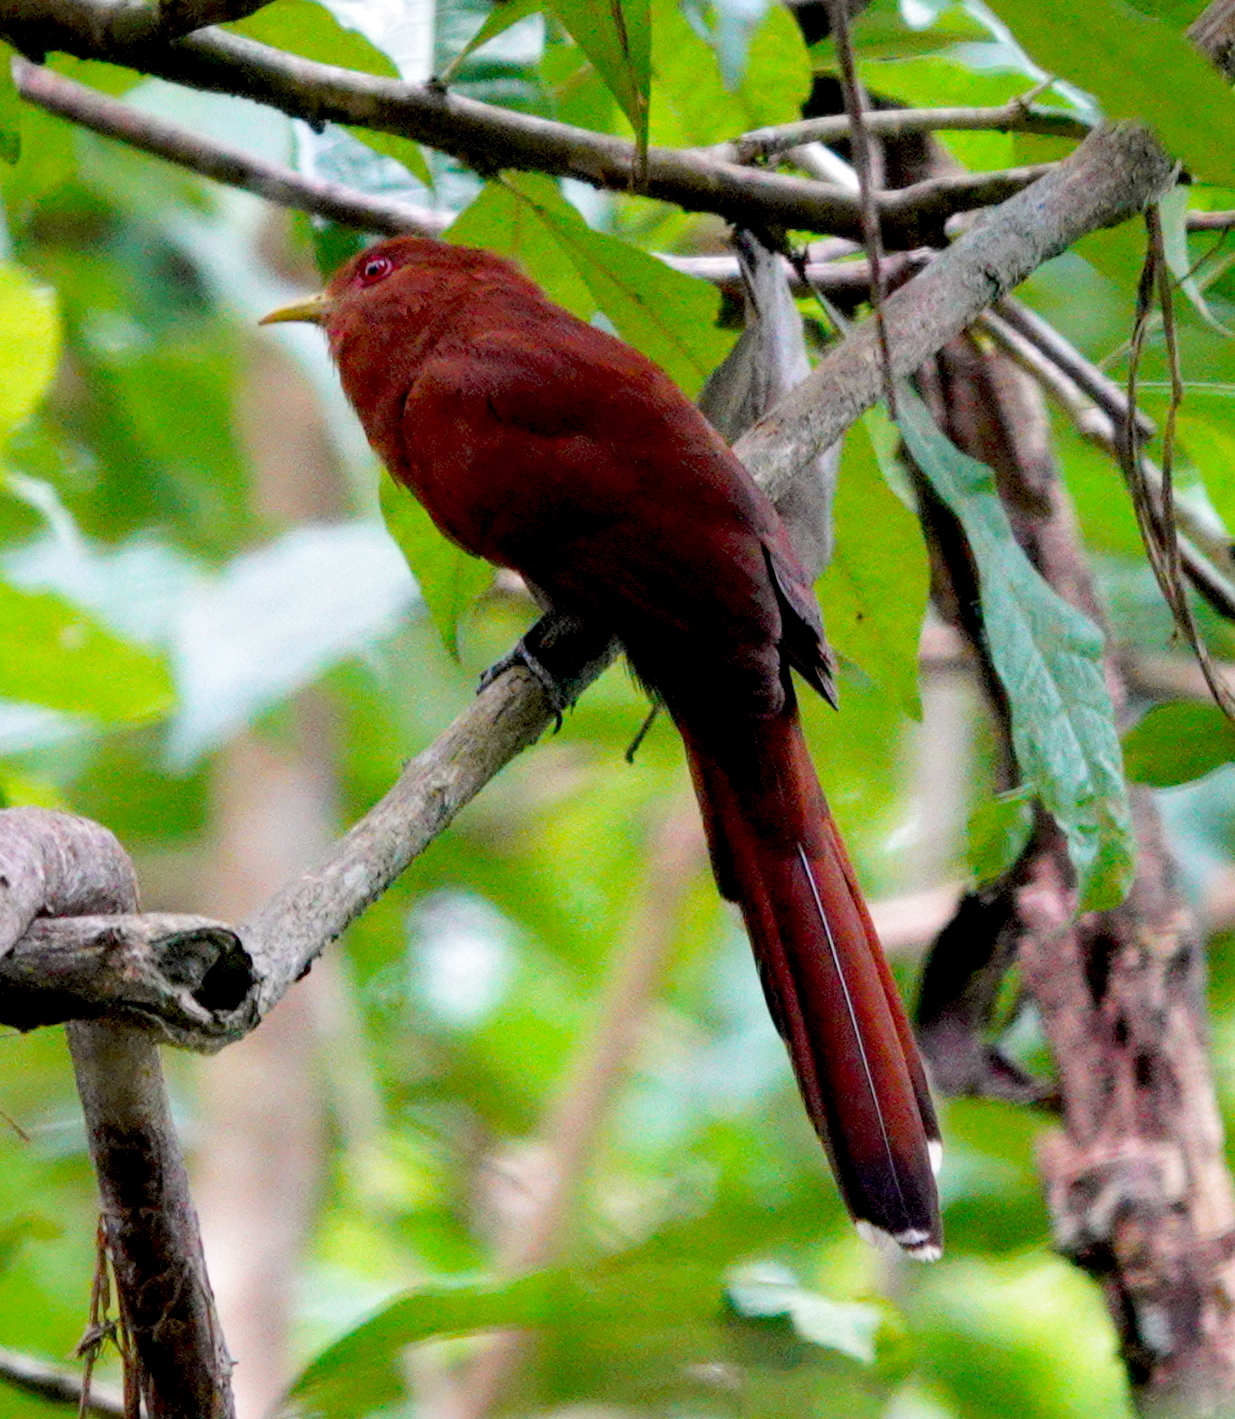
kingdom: Animalia
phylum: Chordata
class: Aves
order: Cuculiformes
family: Cuculidae
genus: Piaya
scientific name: Piaya minuta
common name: Little cuckoo
